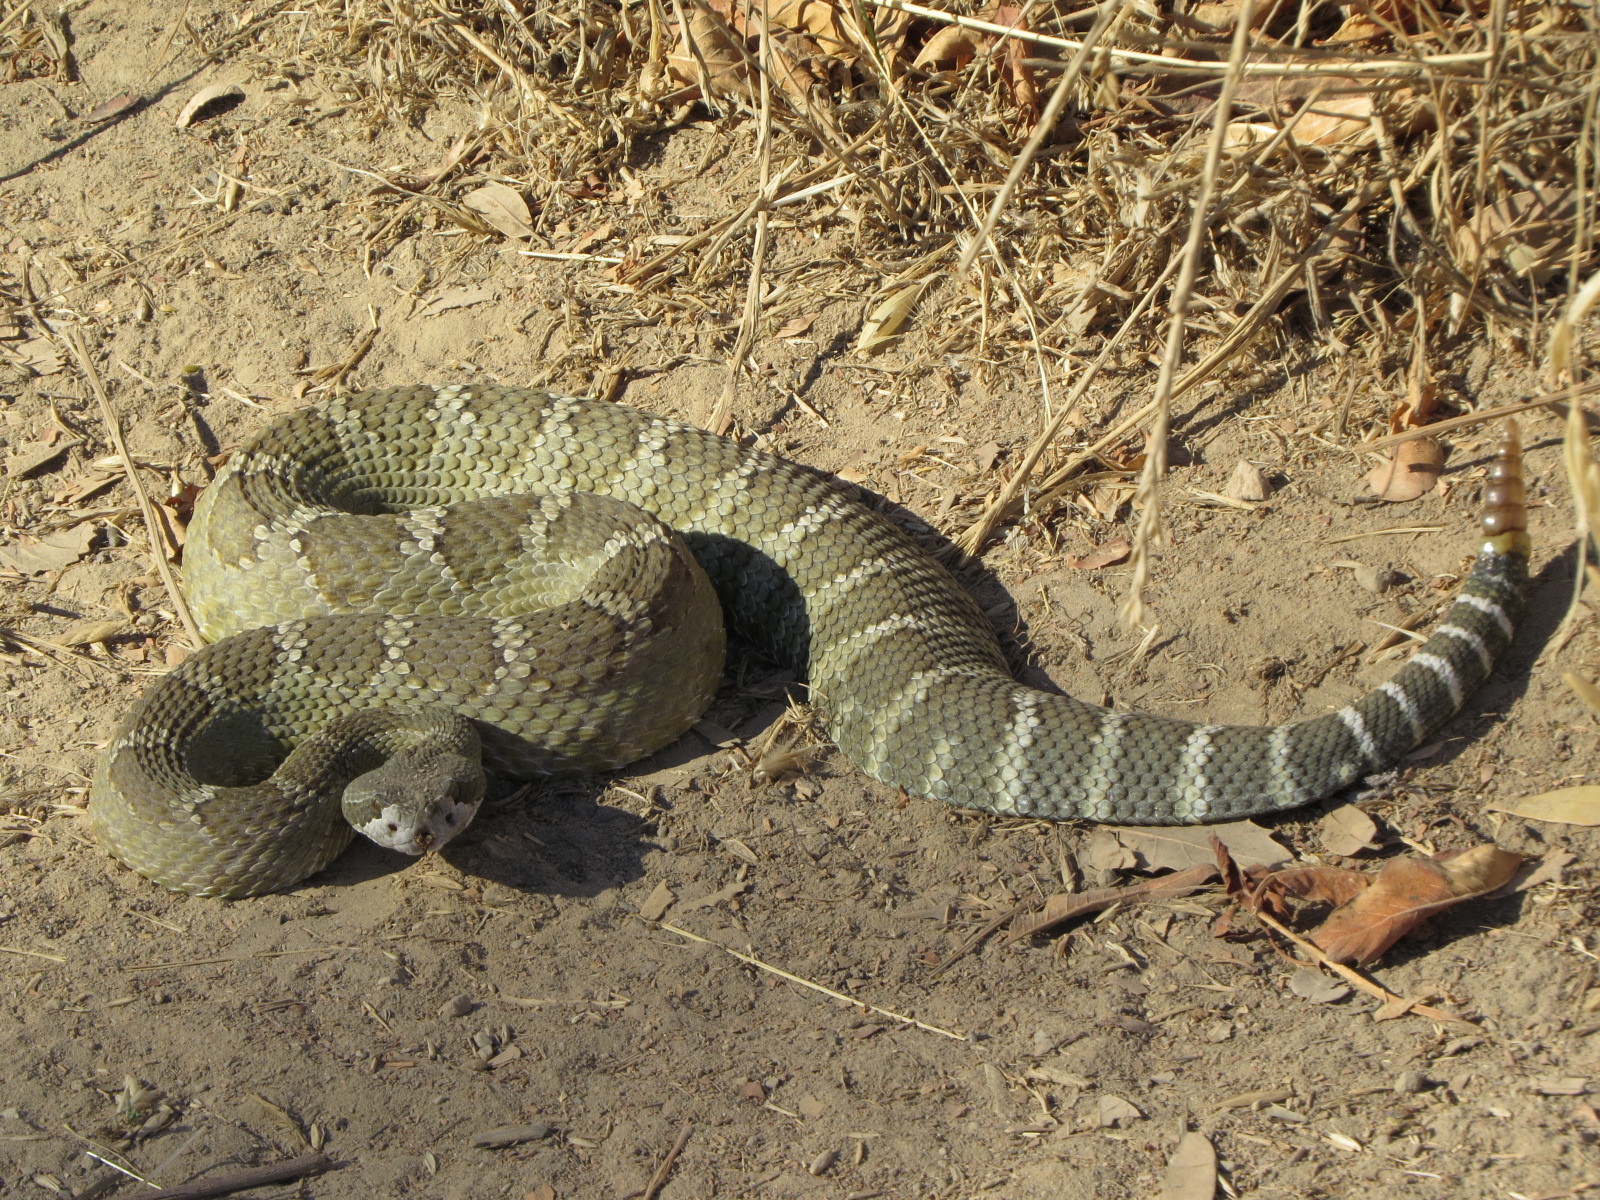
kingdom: Animalia
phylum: Chordata
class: Squamata
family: Viperidae
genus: Crotalus
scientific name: Crotalus oreganus
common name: Abyssus
